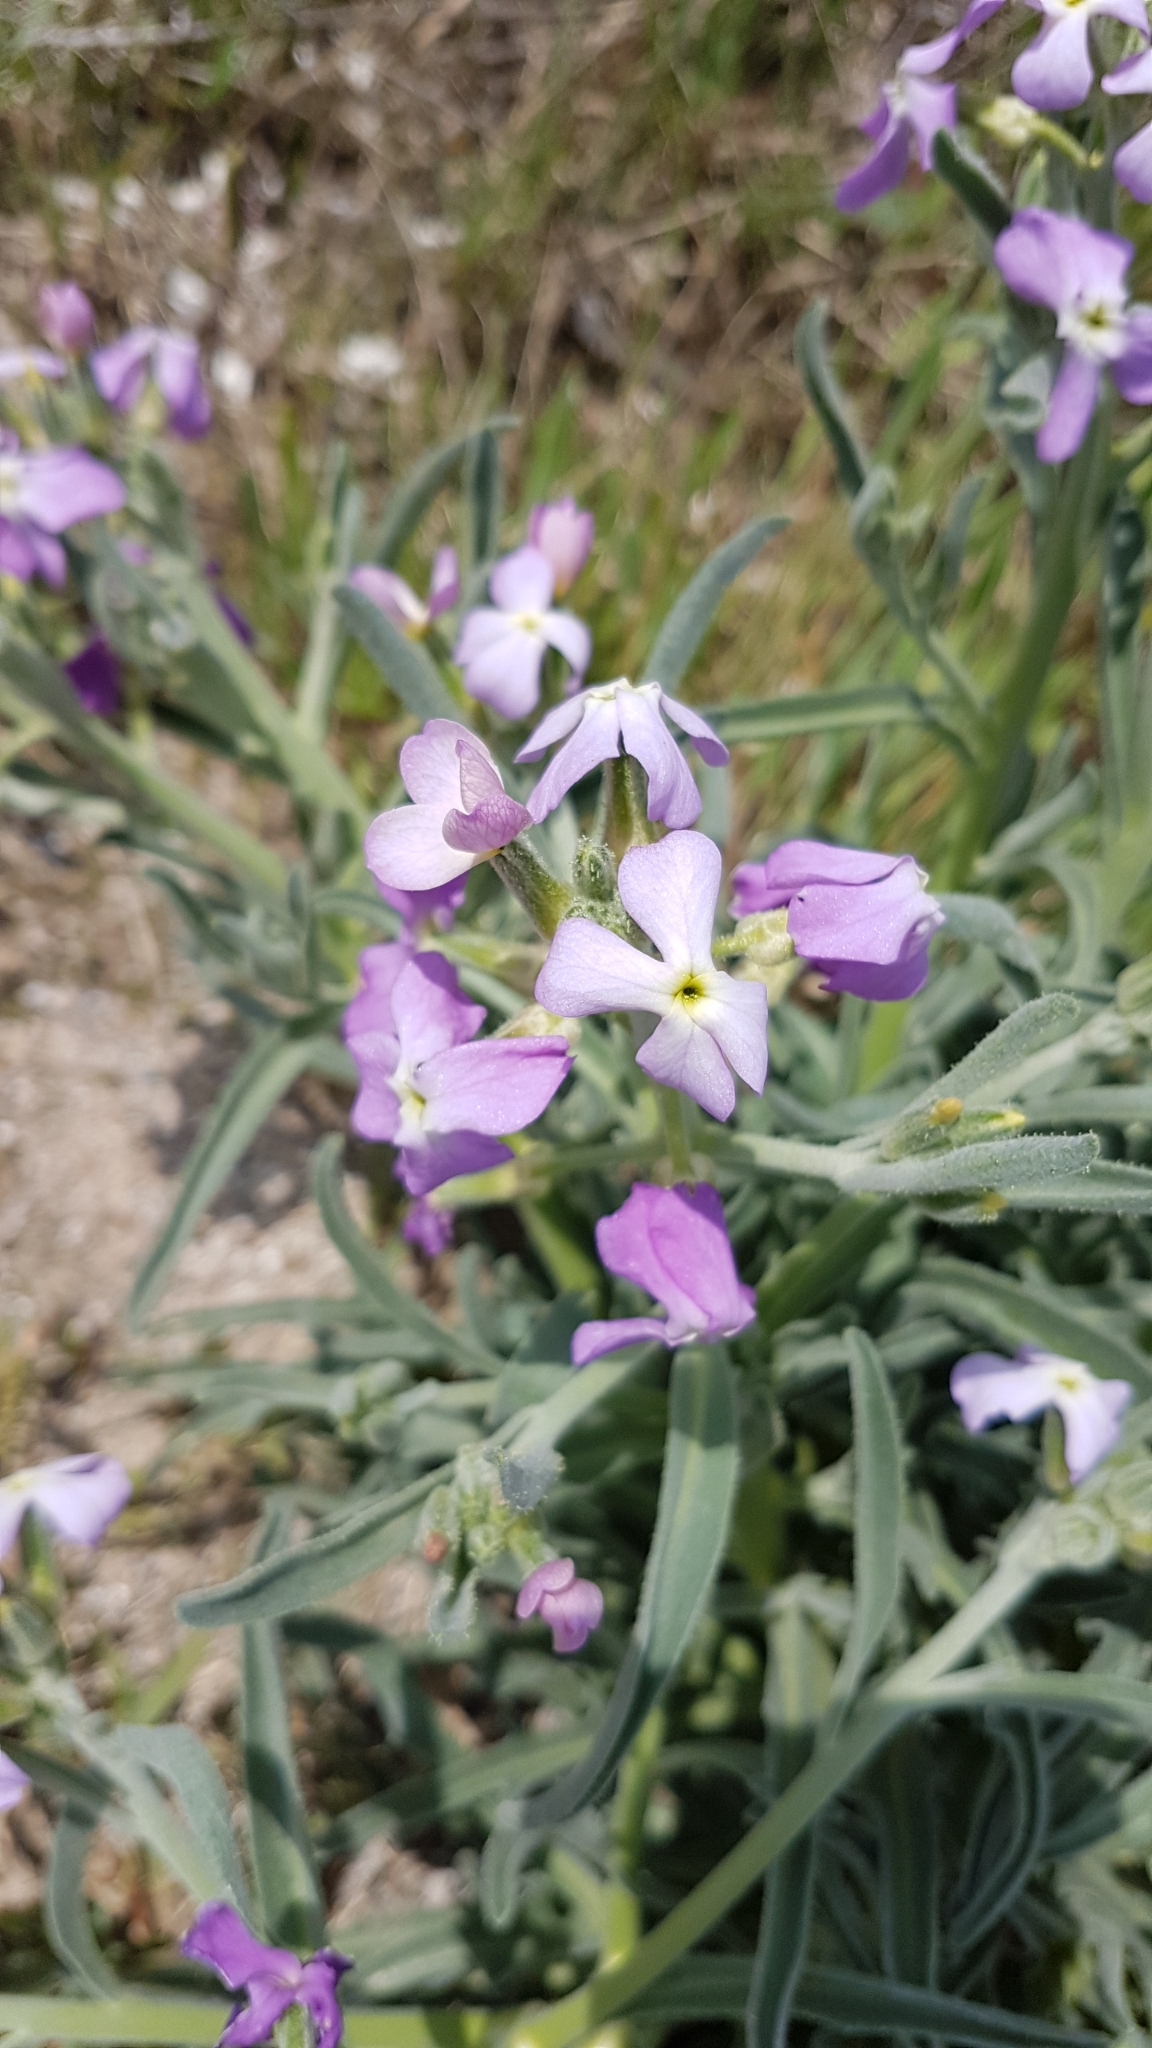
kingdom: Plantae
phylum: Tracheophyta
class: Magnoliopsida
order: Brassicales
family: Brassicaceae
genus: Matthiola
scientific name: Matthiola sinuata
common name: Sea stock
